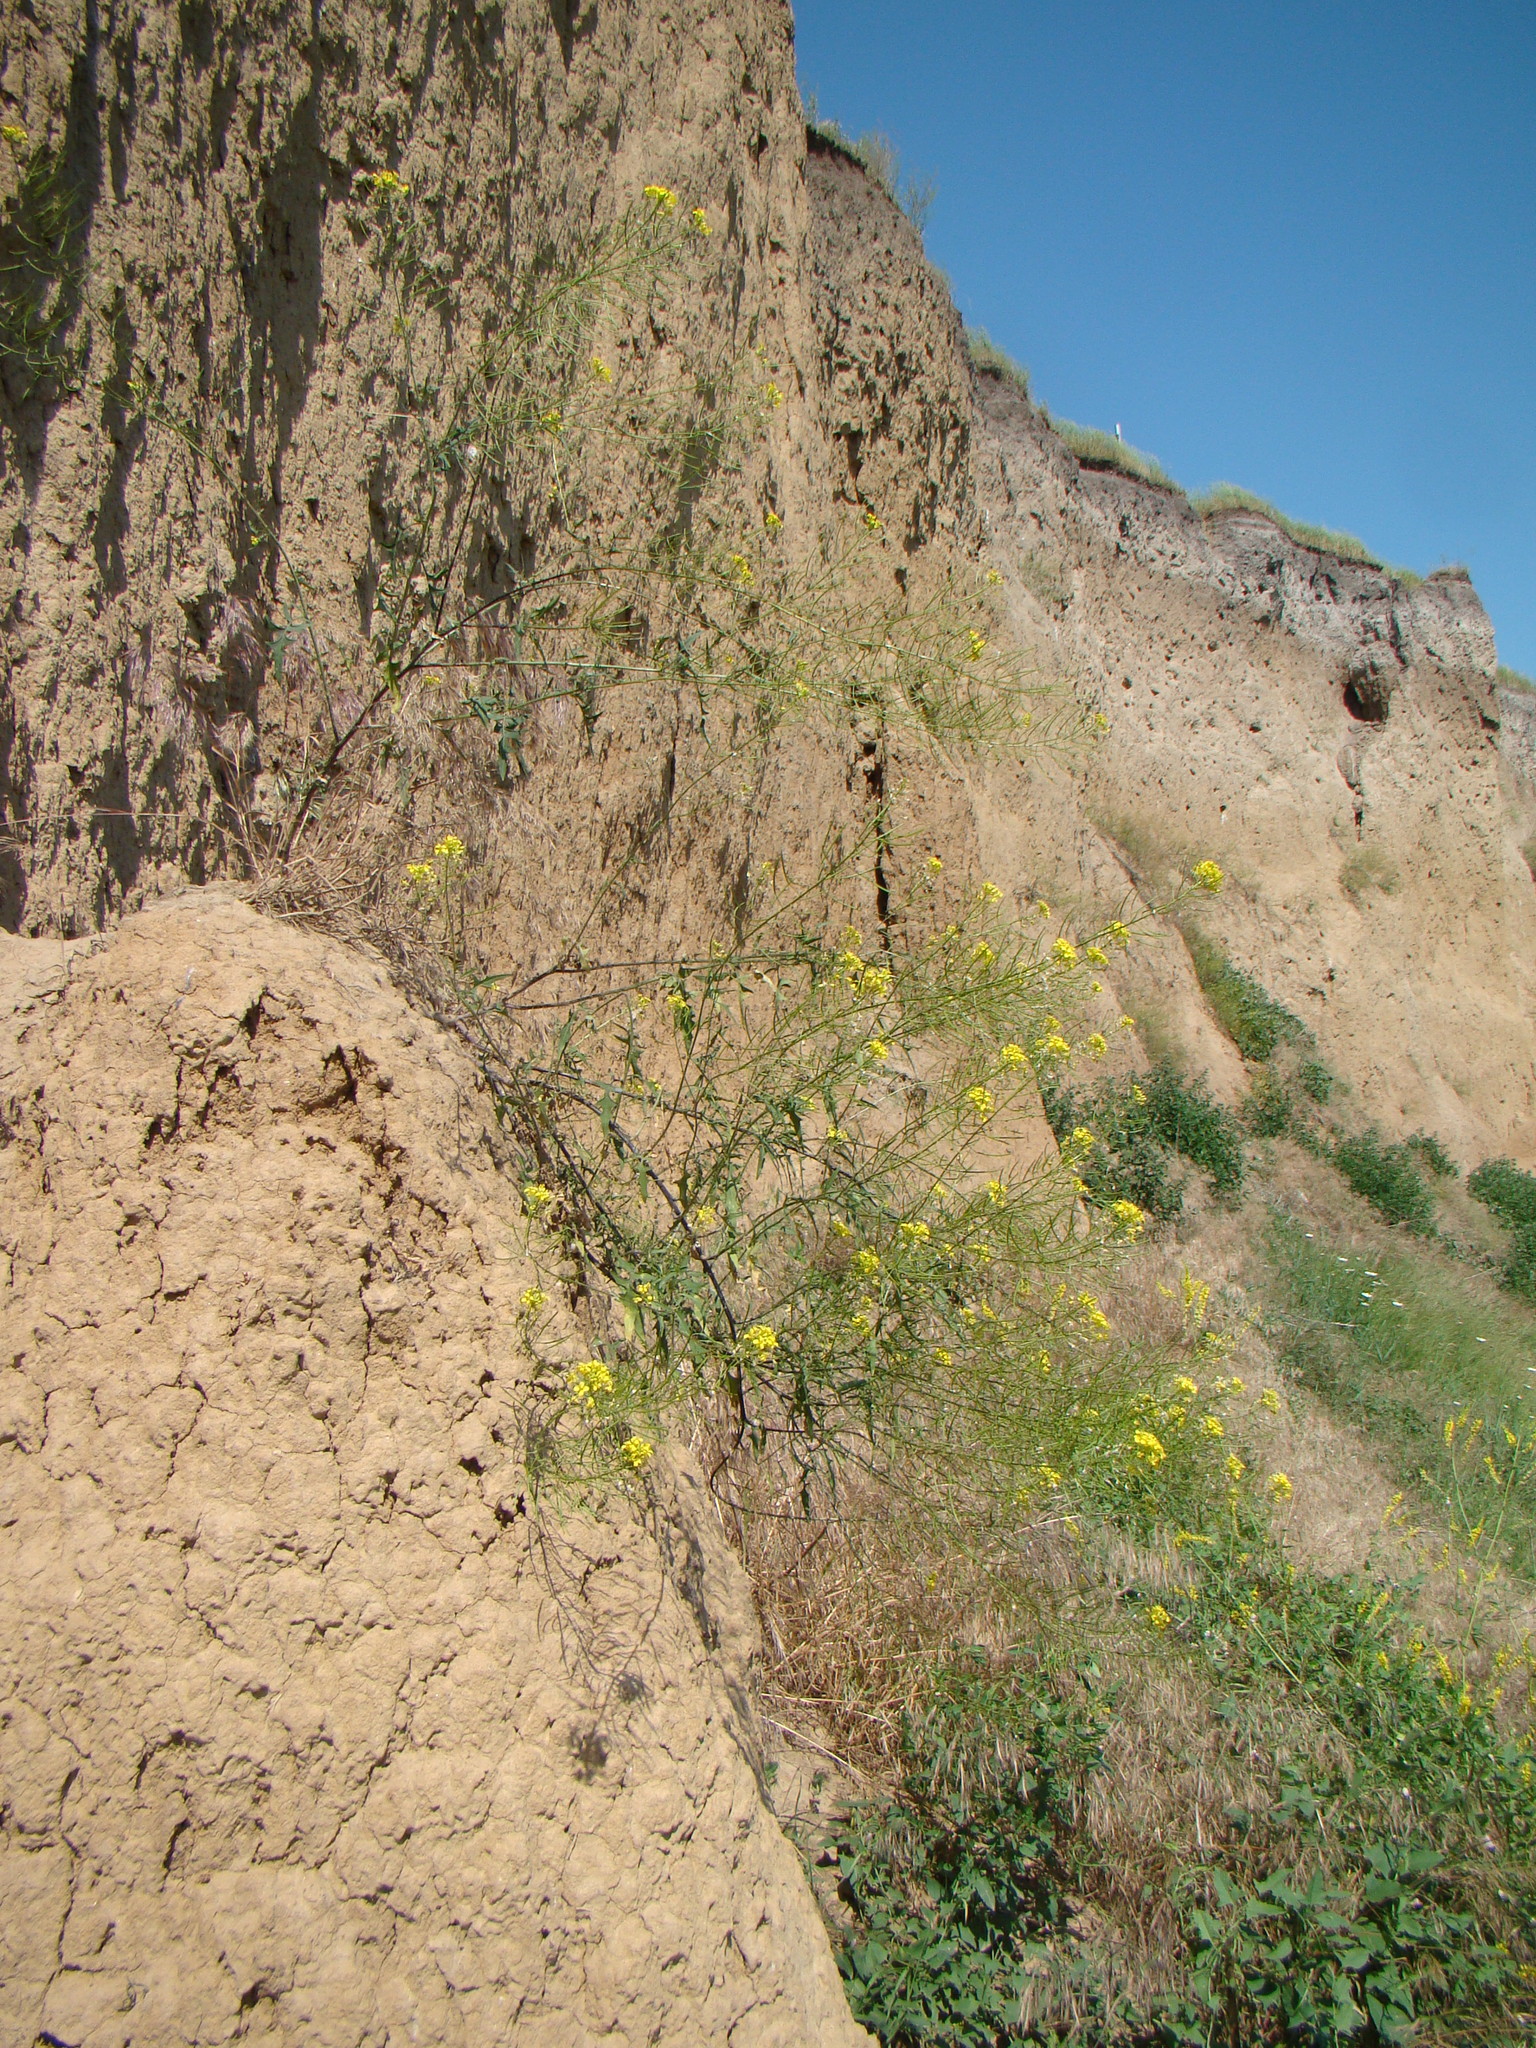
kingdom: Plantae
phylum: Tracheophyta
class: Magnoliopsida
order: Brassicales
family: Brassicaceae
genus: Sisymbrium
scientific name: Sisymbrium loeselii
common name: False london-rocket
